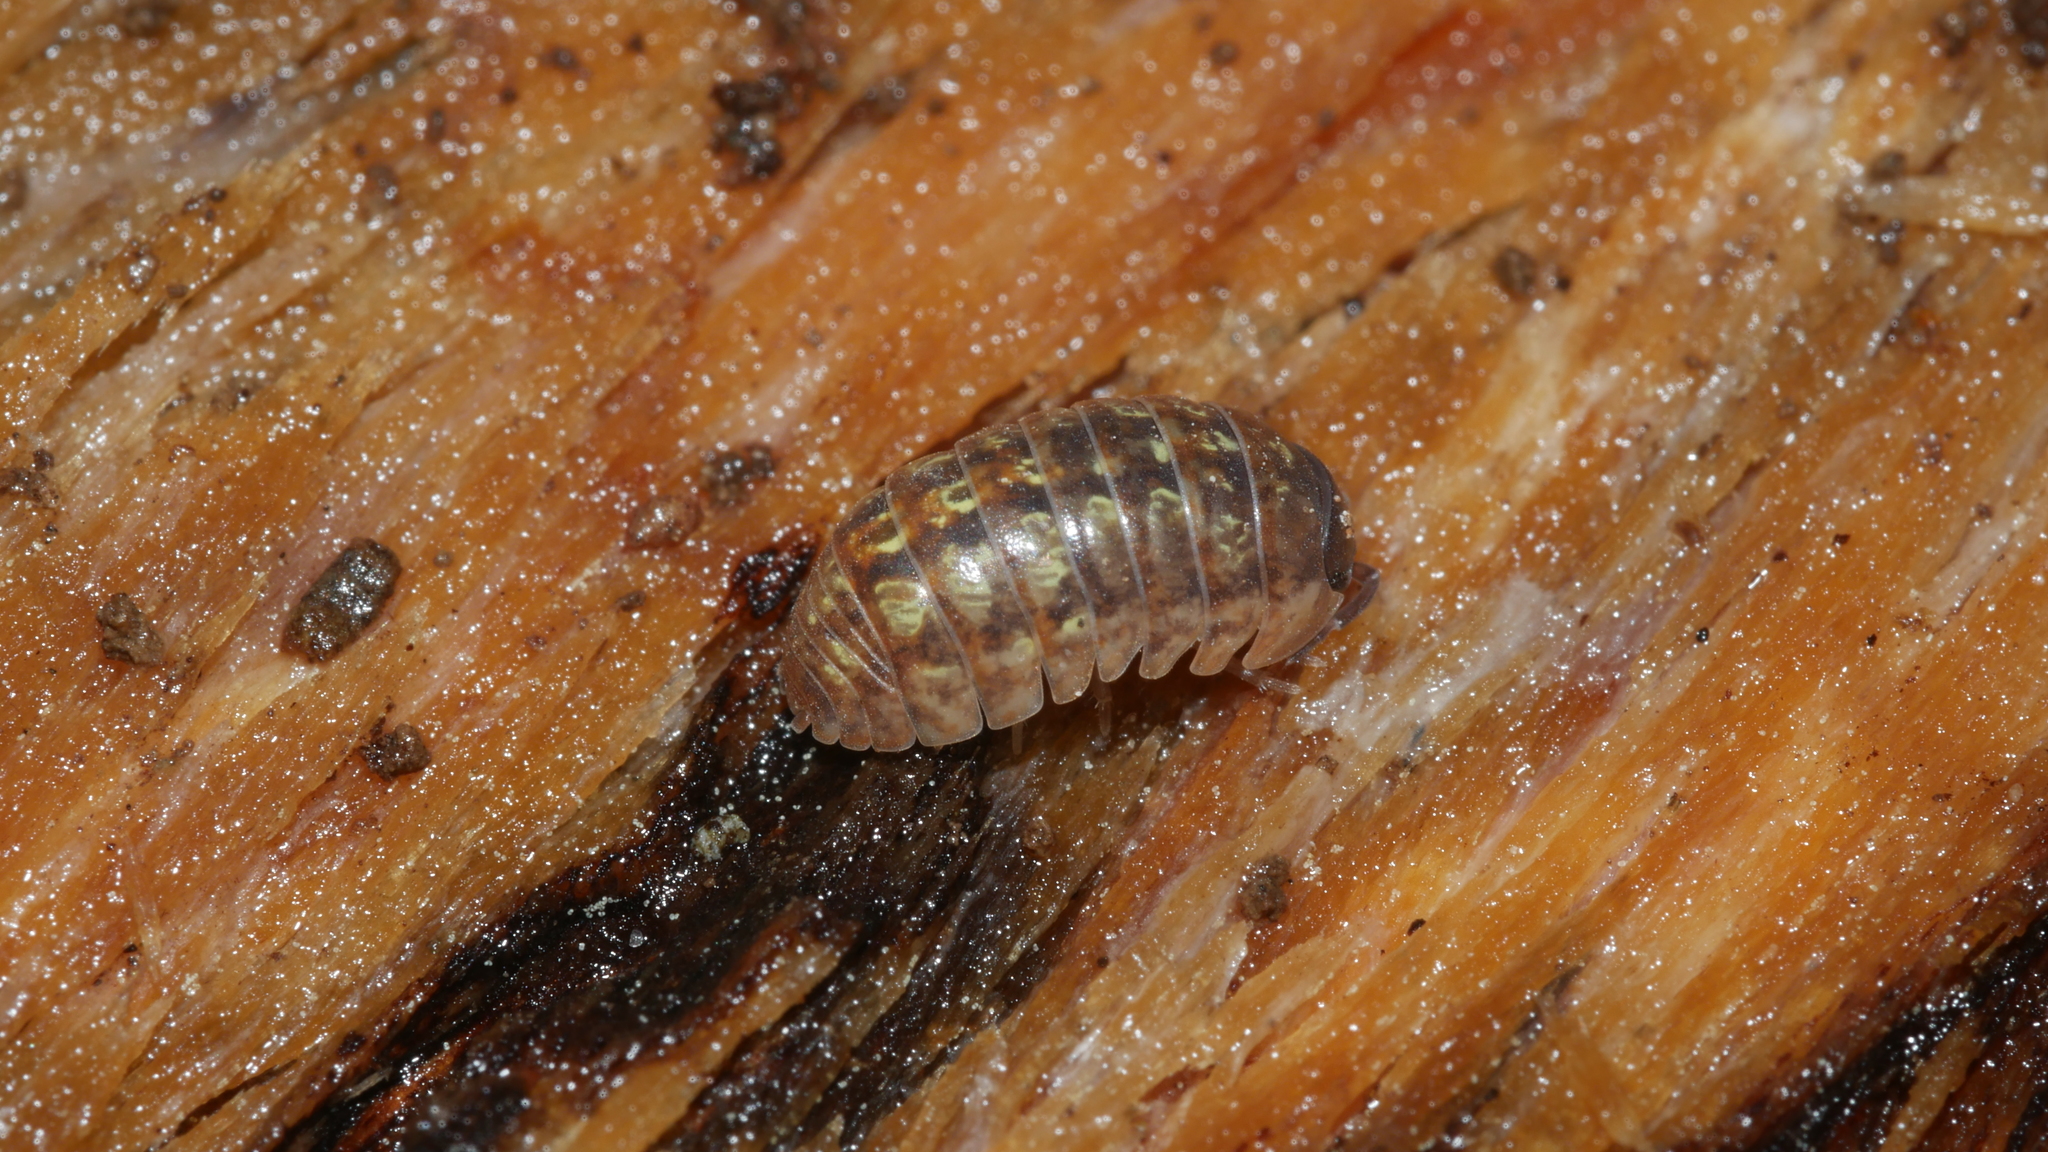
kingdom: Animalia
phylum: Arthropoda
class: Malacostraca
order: Isopoda
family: Armadillidiidae
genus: Armadillidium
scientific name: Armadillidium vulgare
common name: Common pill woodlouse
